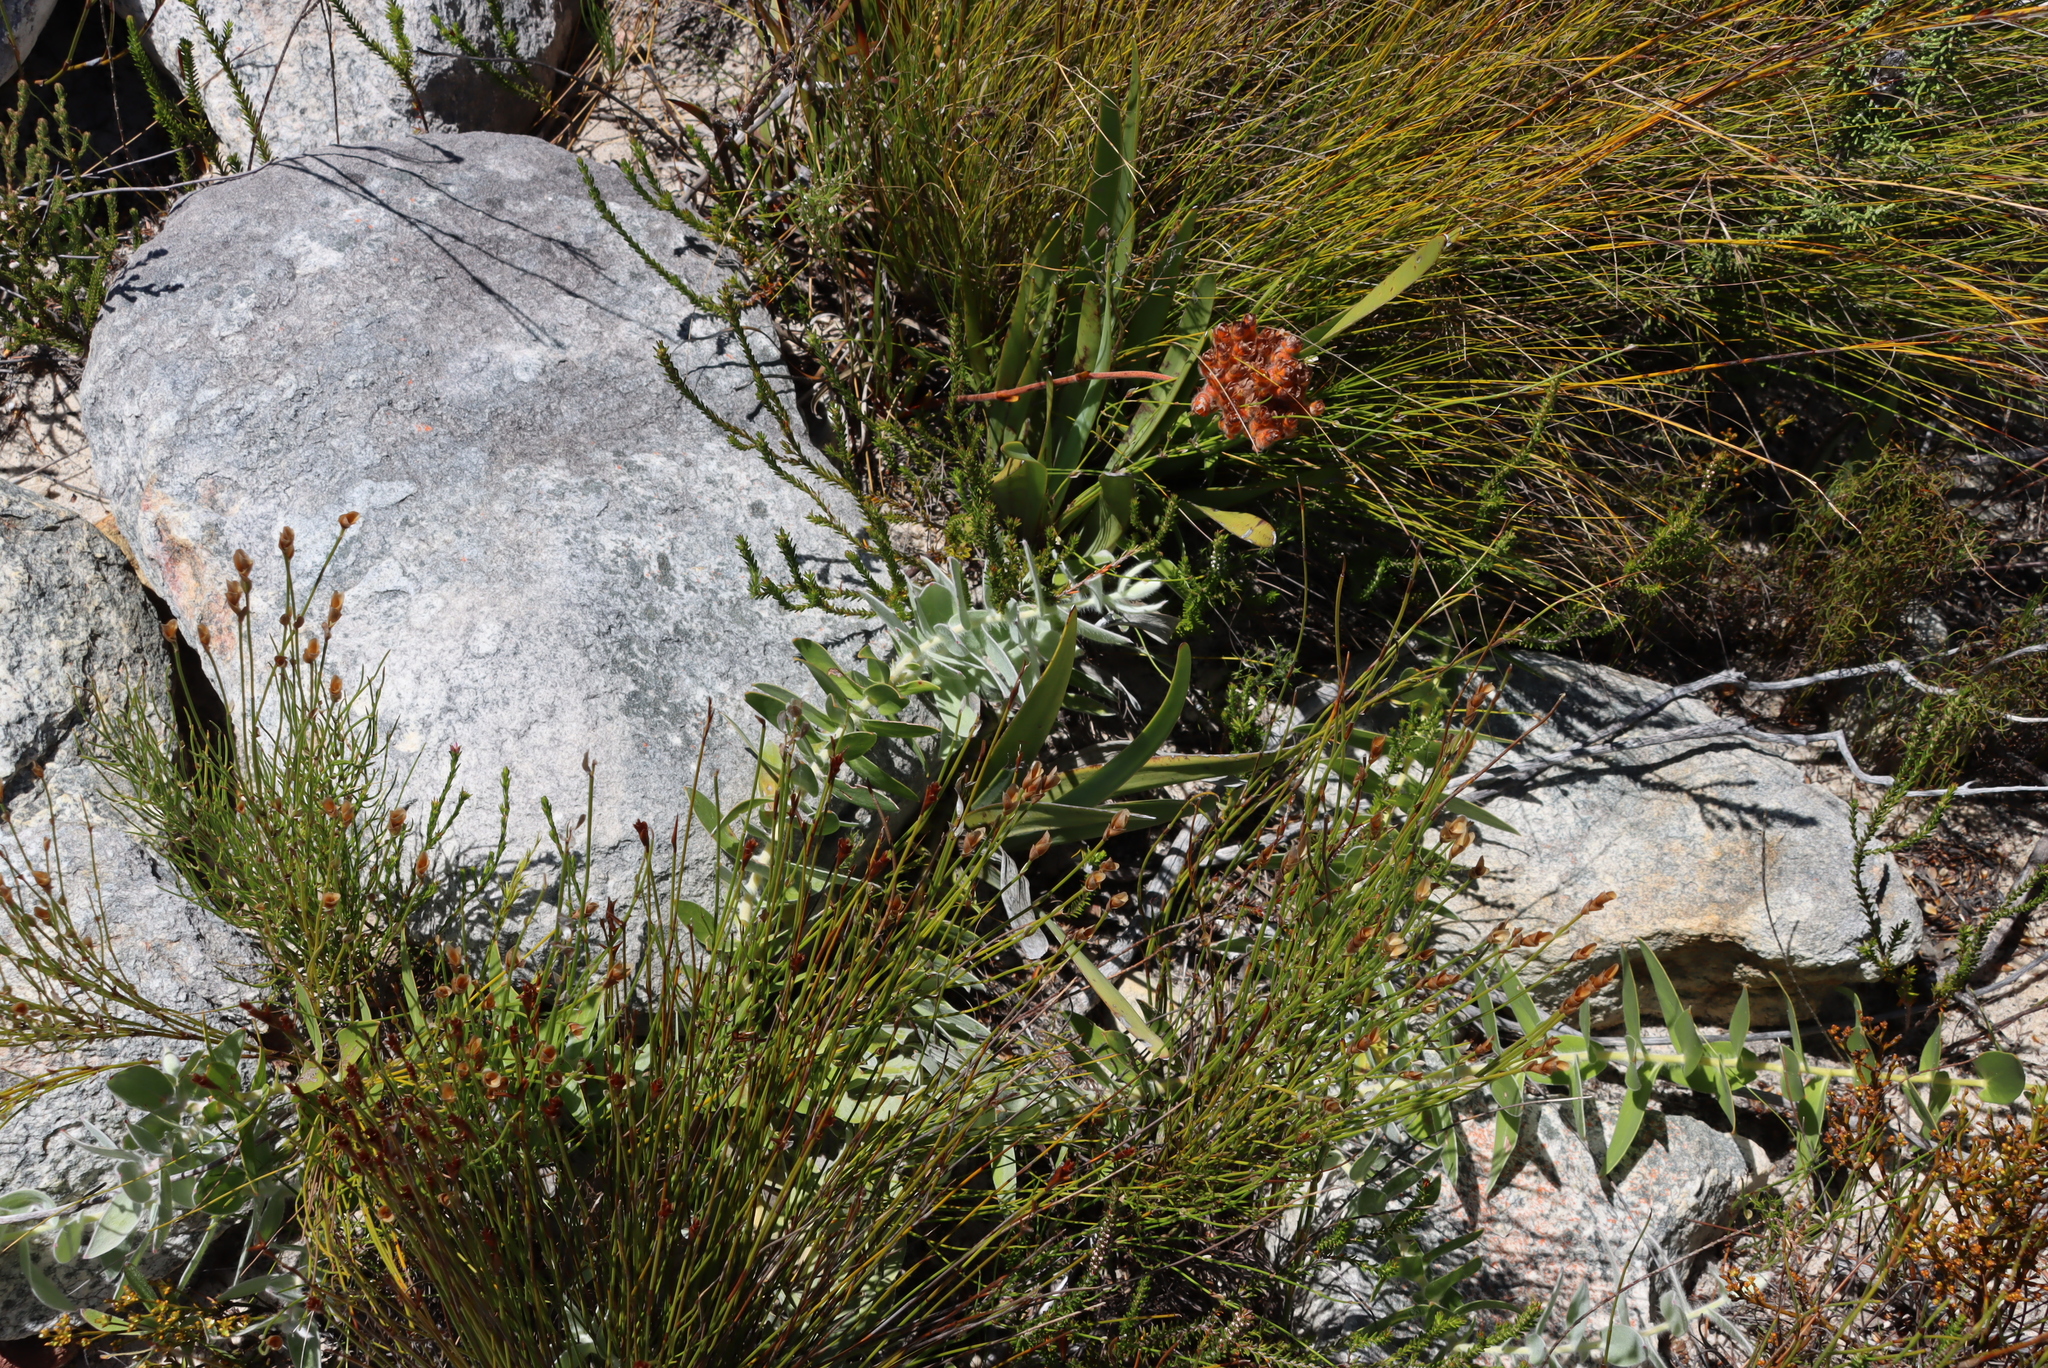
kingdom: Plantae
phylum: Tracheophyta
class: Magnoliopsida
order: Proteales
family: Proteaceae
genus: Leucospermum
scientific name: Leucospermum cordatum
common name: Heart-leaf pincushion
